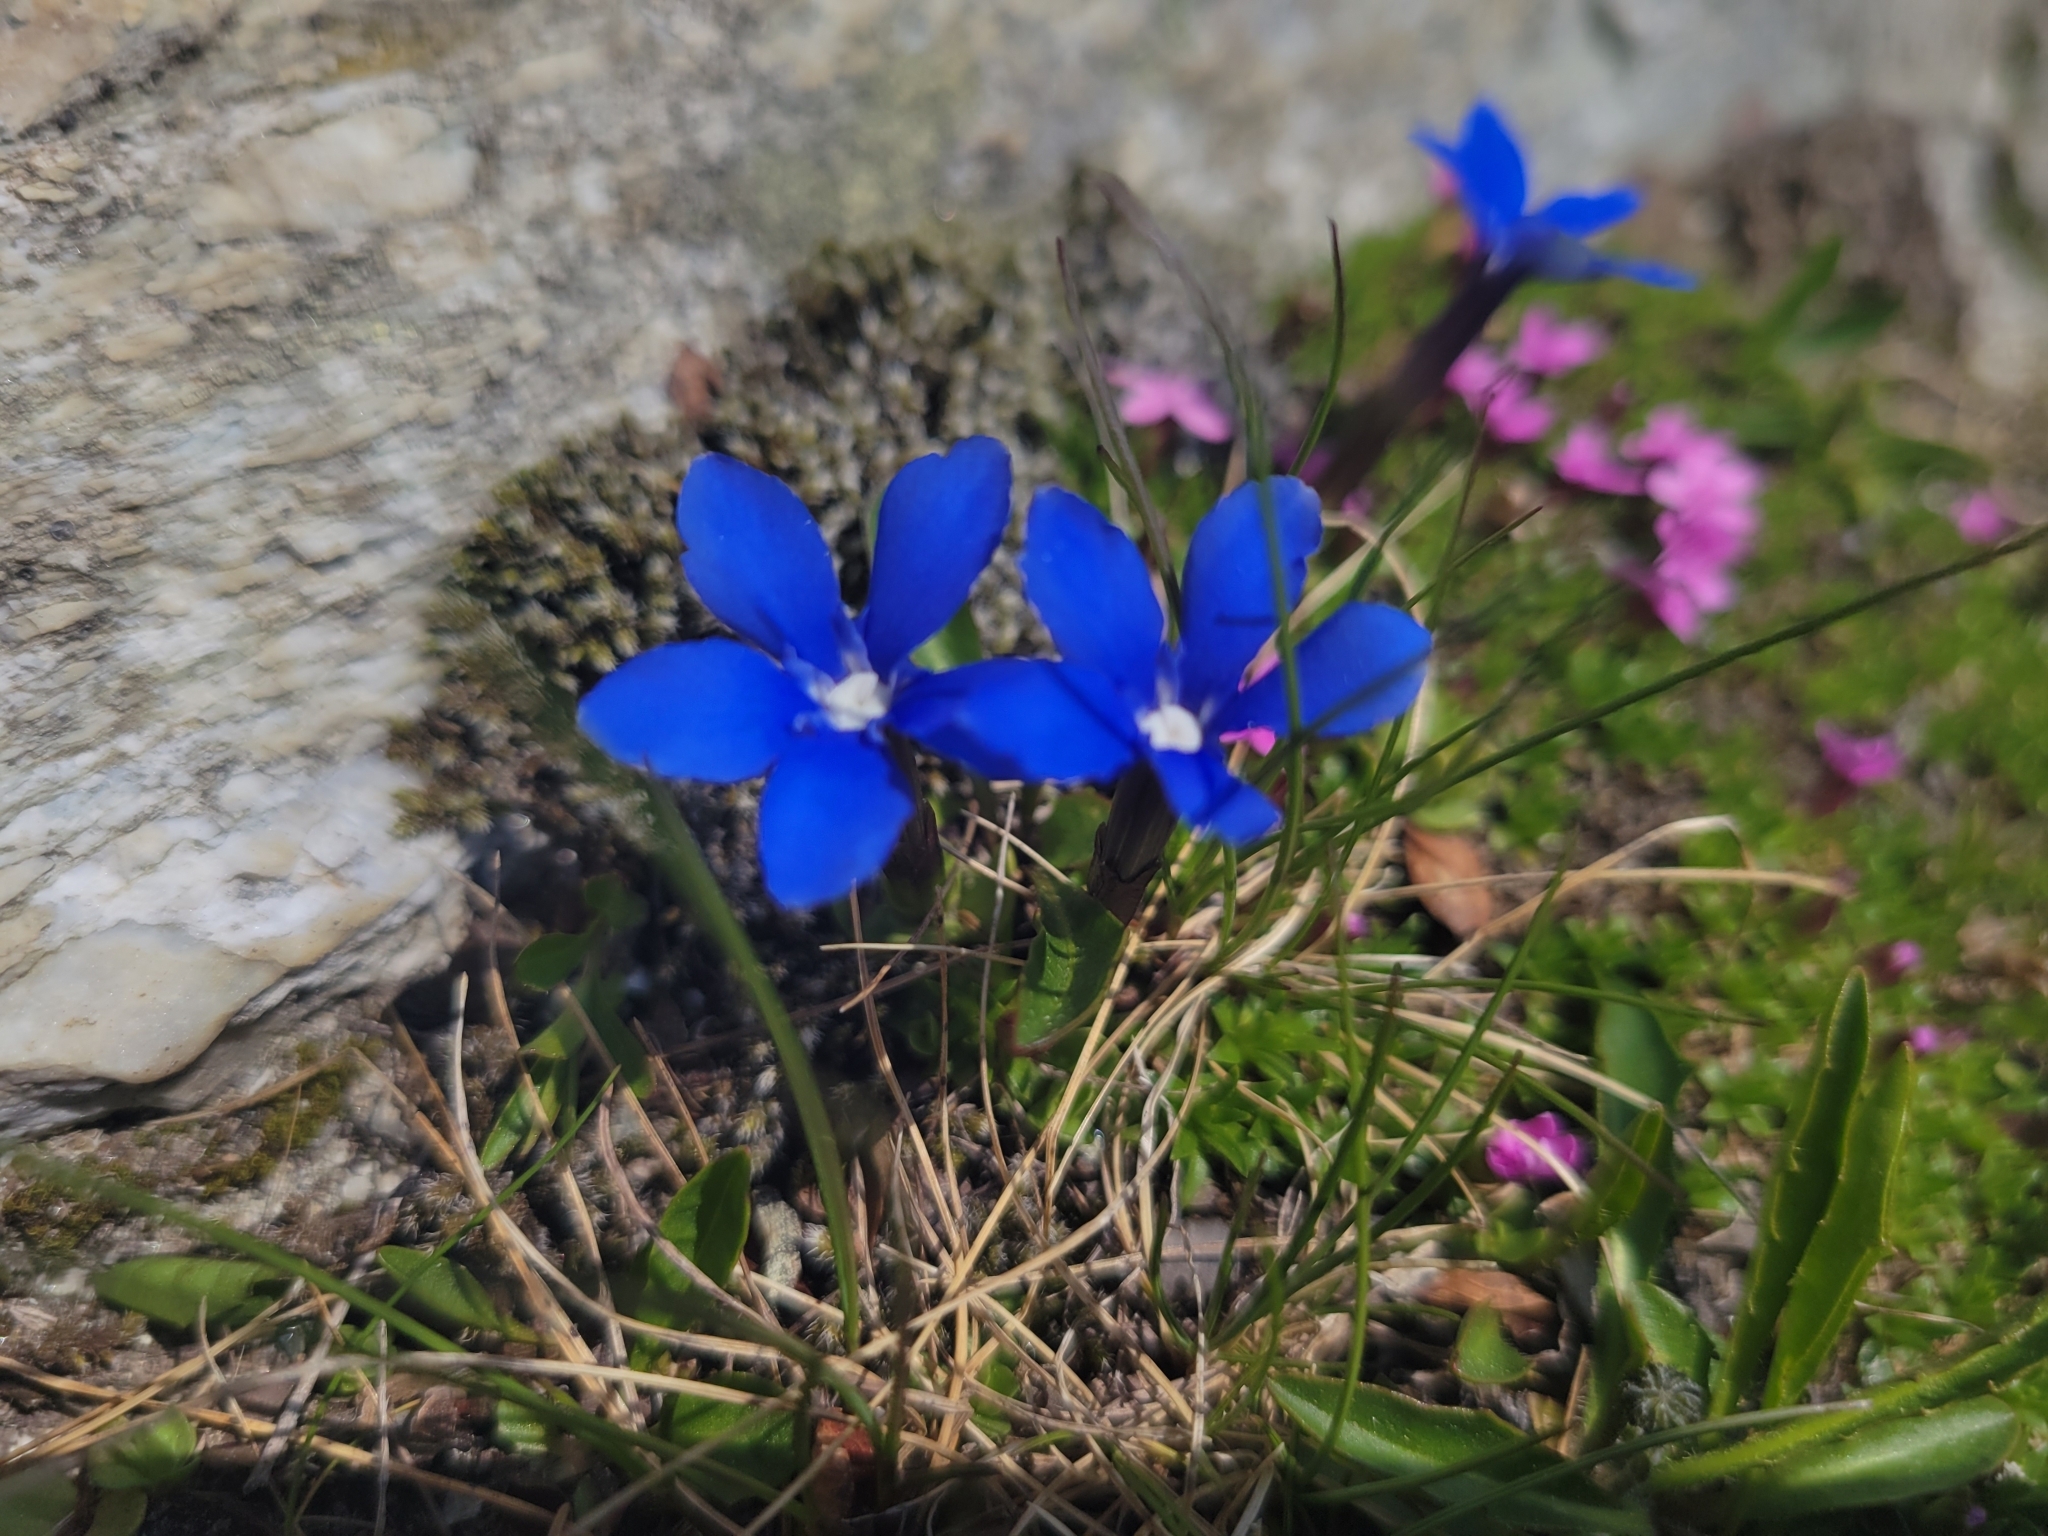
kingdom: Plantae
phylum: Tracheophyta
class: Magnoliopsida
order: Gentianales
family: Gentianaceae
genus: Gentiana
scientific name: Gentiana brachyphylla
